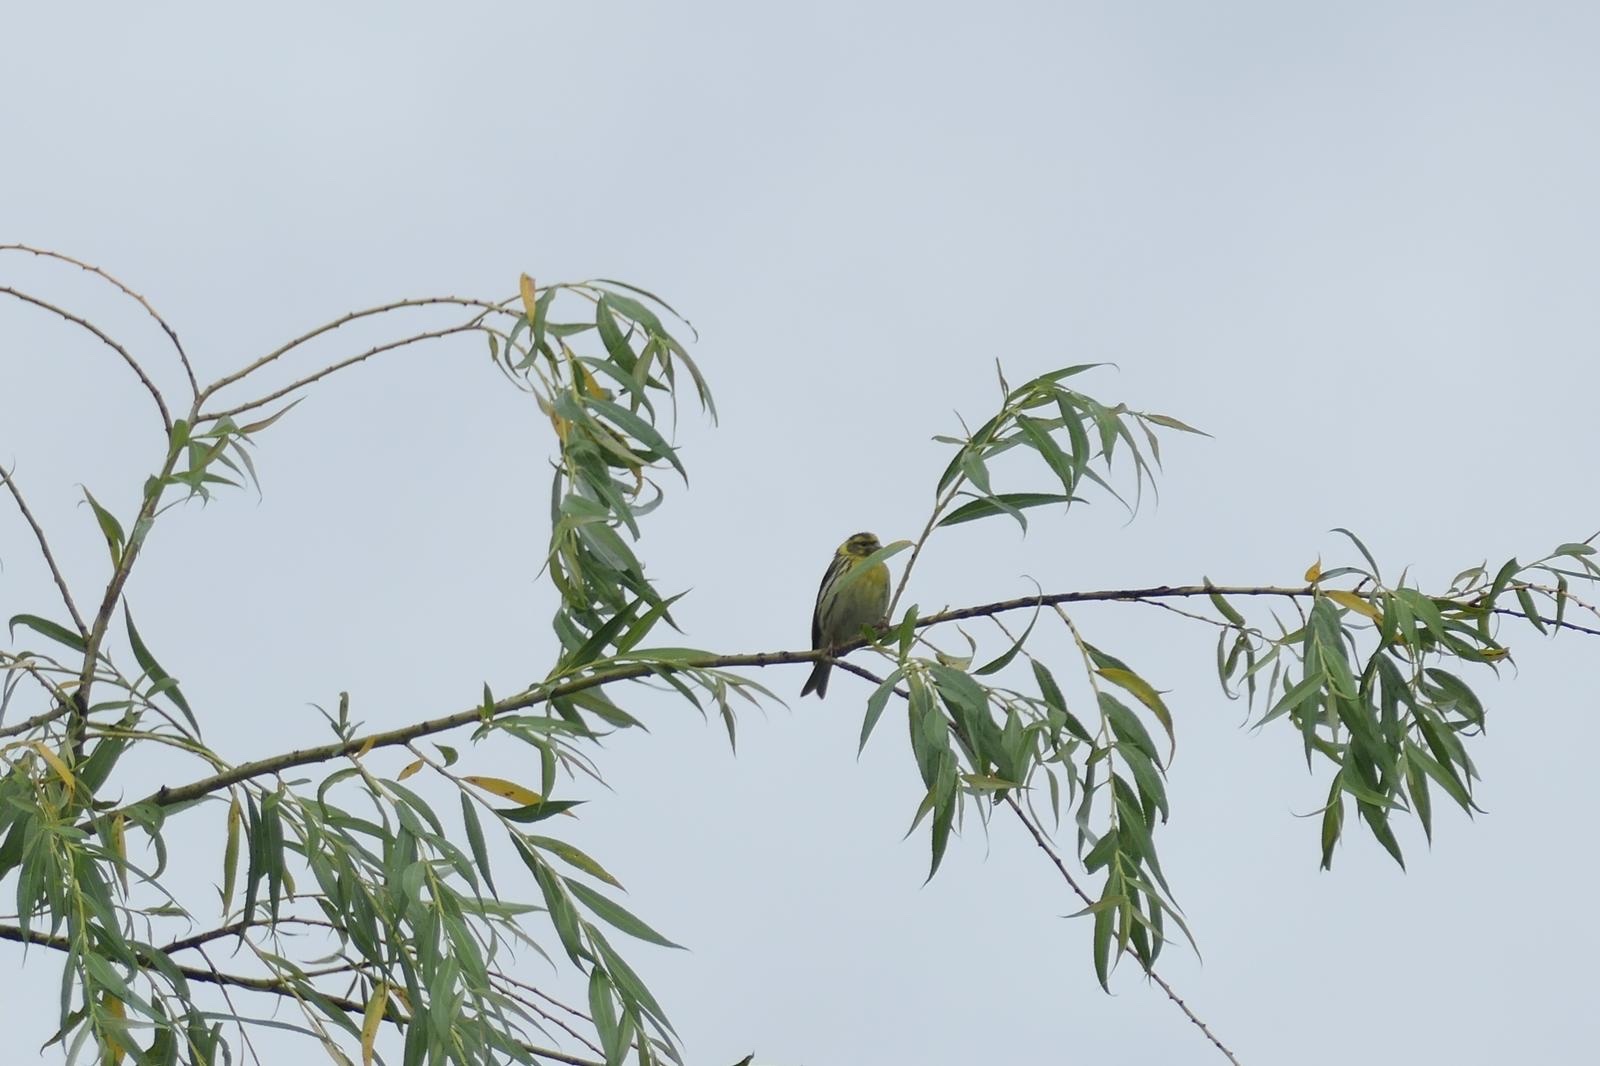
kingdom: Animalia
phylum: Chordata
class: Aves
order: Passeriformes
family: Fringillidae
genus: Serinus
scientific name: Serinus serinus
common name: European serin
